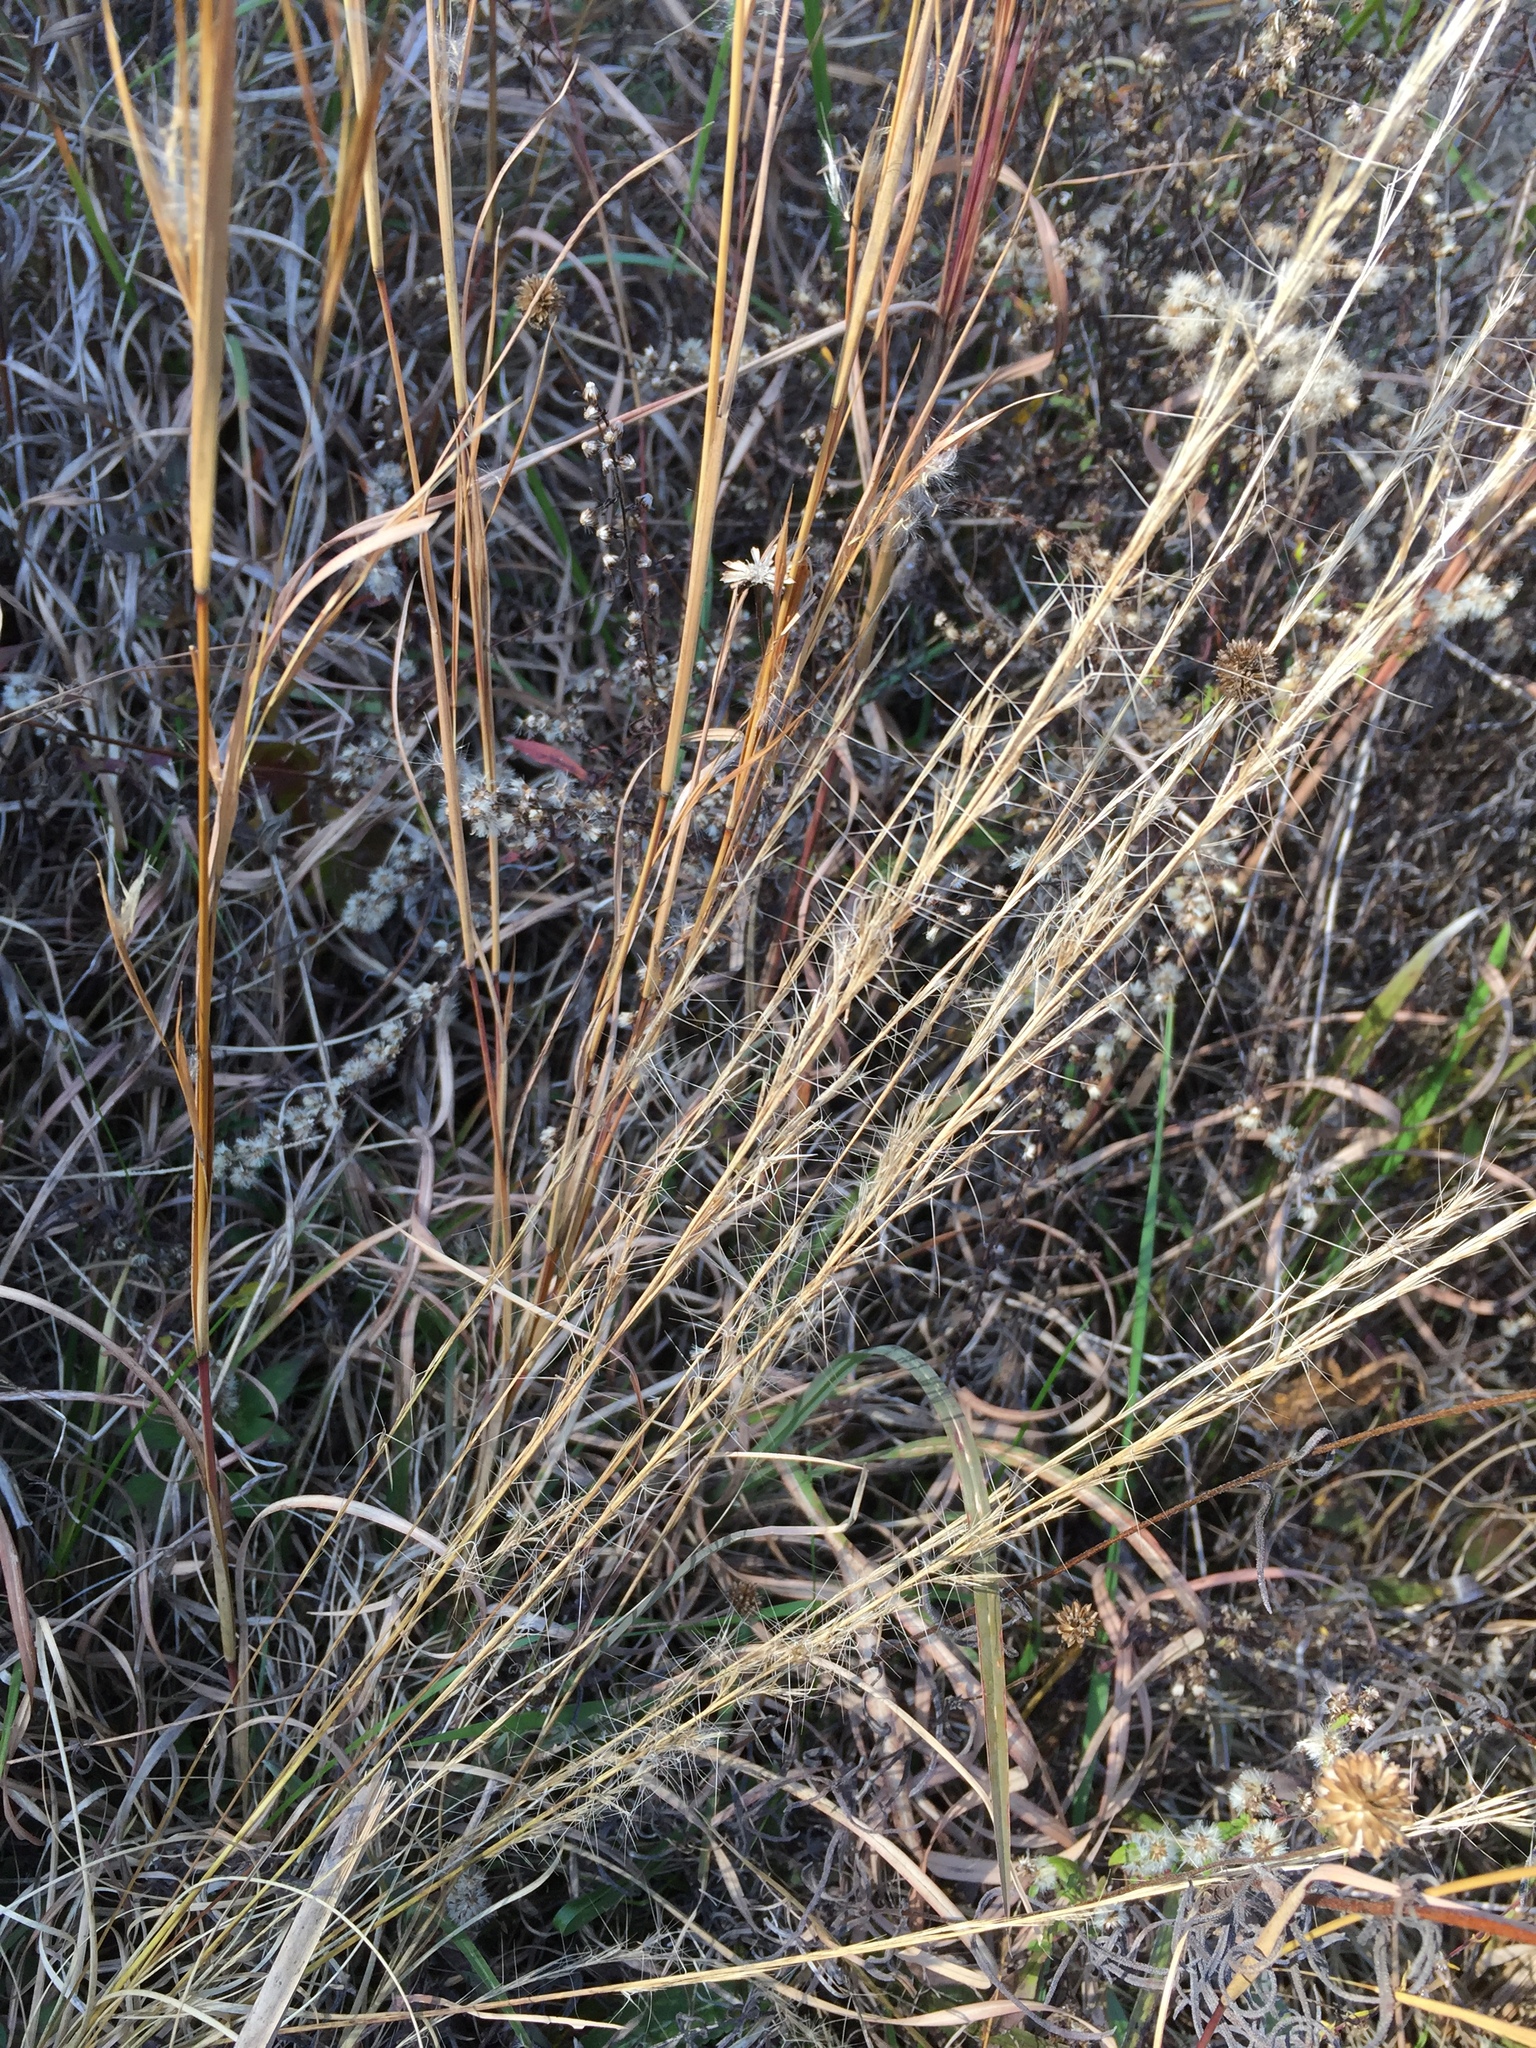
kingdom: Plantae
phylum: Tracheophyta
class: Liliopsida
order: Poales
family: Poaceae
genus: Aristida
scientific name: Aristida purpurascens
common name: Arrow-feather
